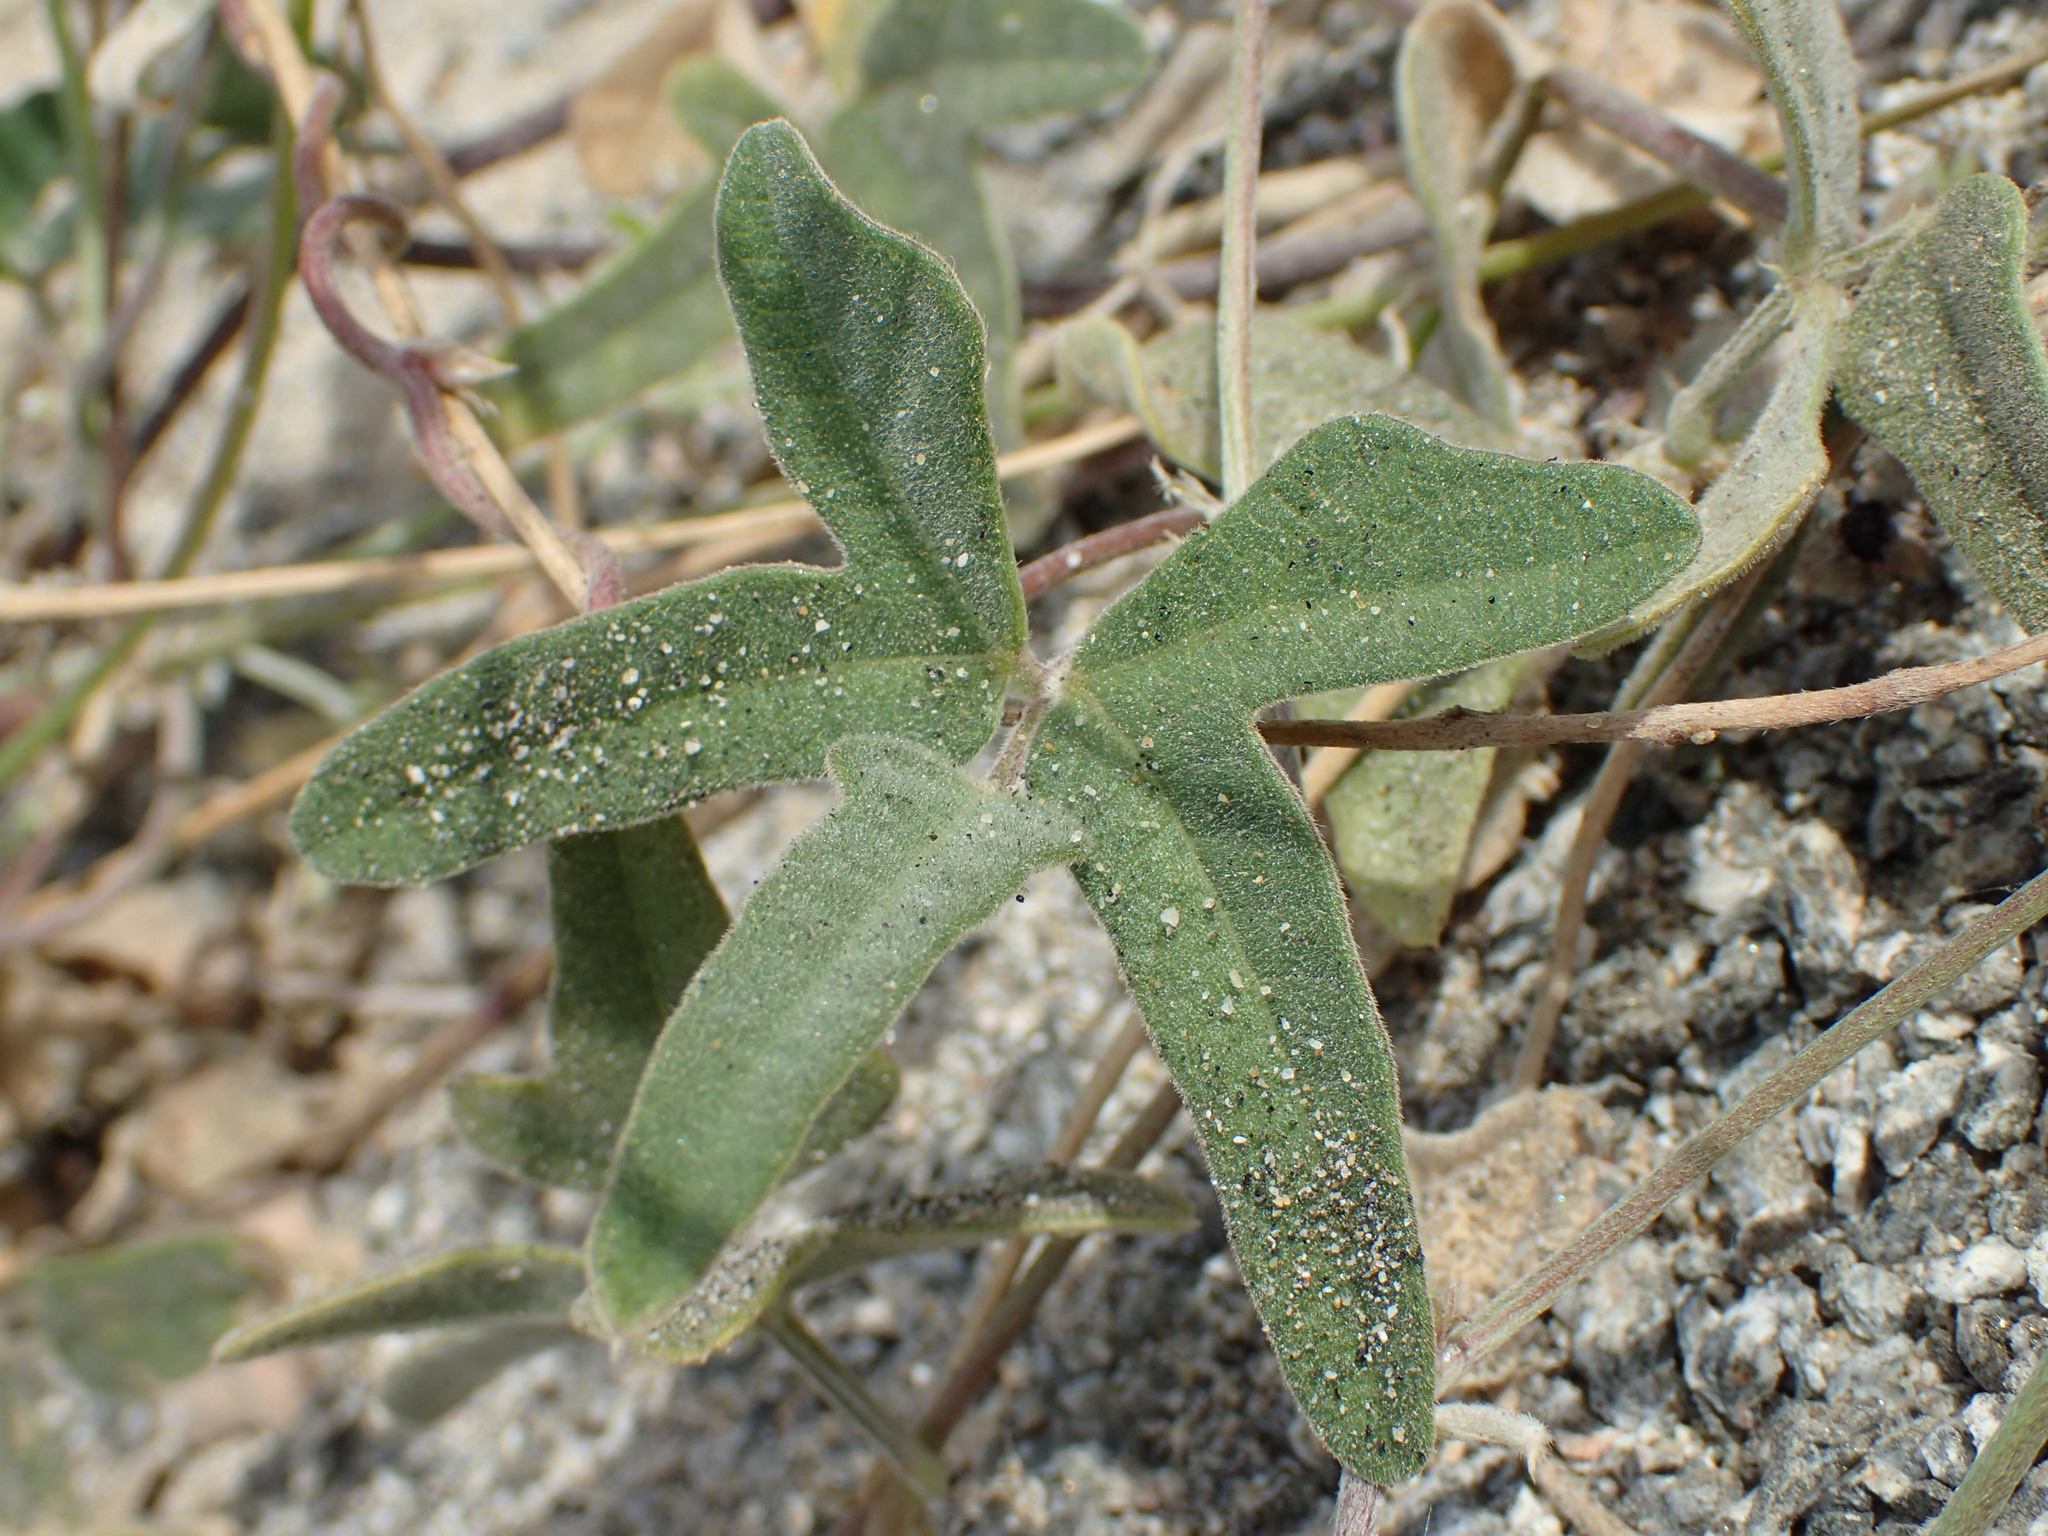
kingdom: Plantae
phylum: Tracheophyta
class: Magnoliopsida
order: Fabales
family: Fabaceae
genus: Macroptilium
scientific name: Macroptilium atropurpureum
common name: Purple bushbean
